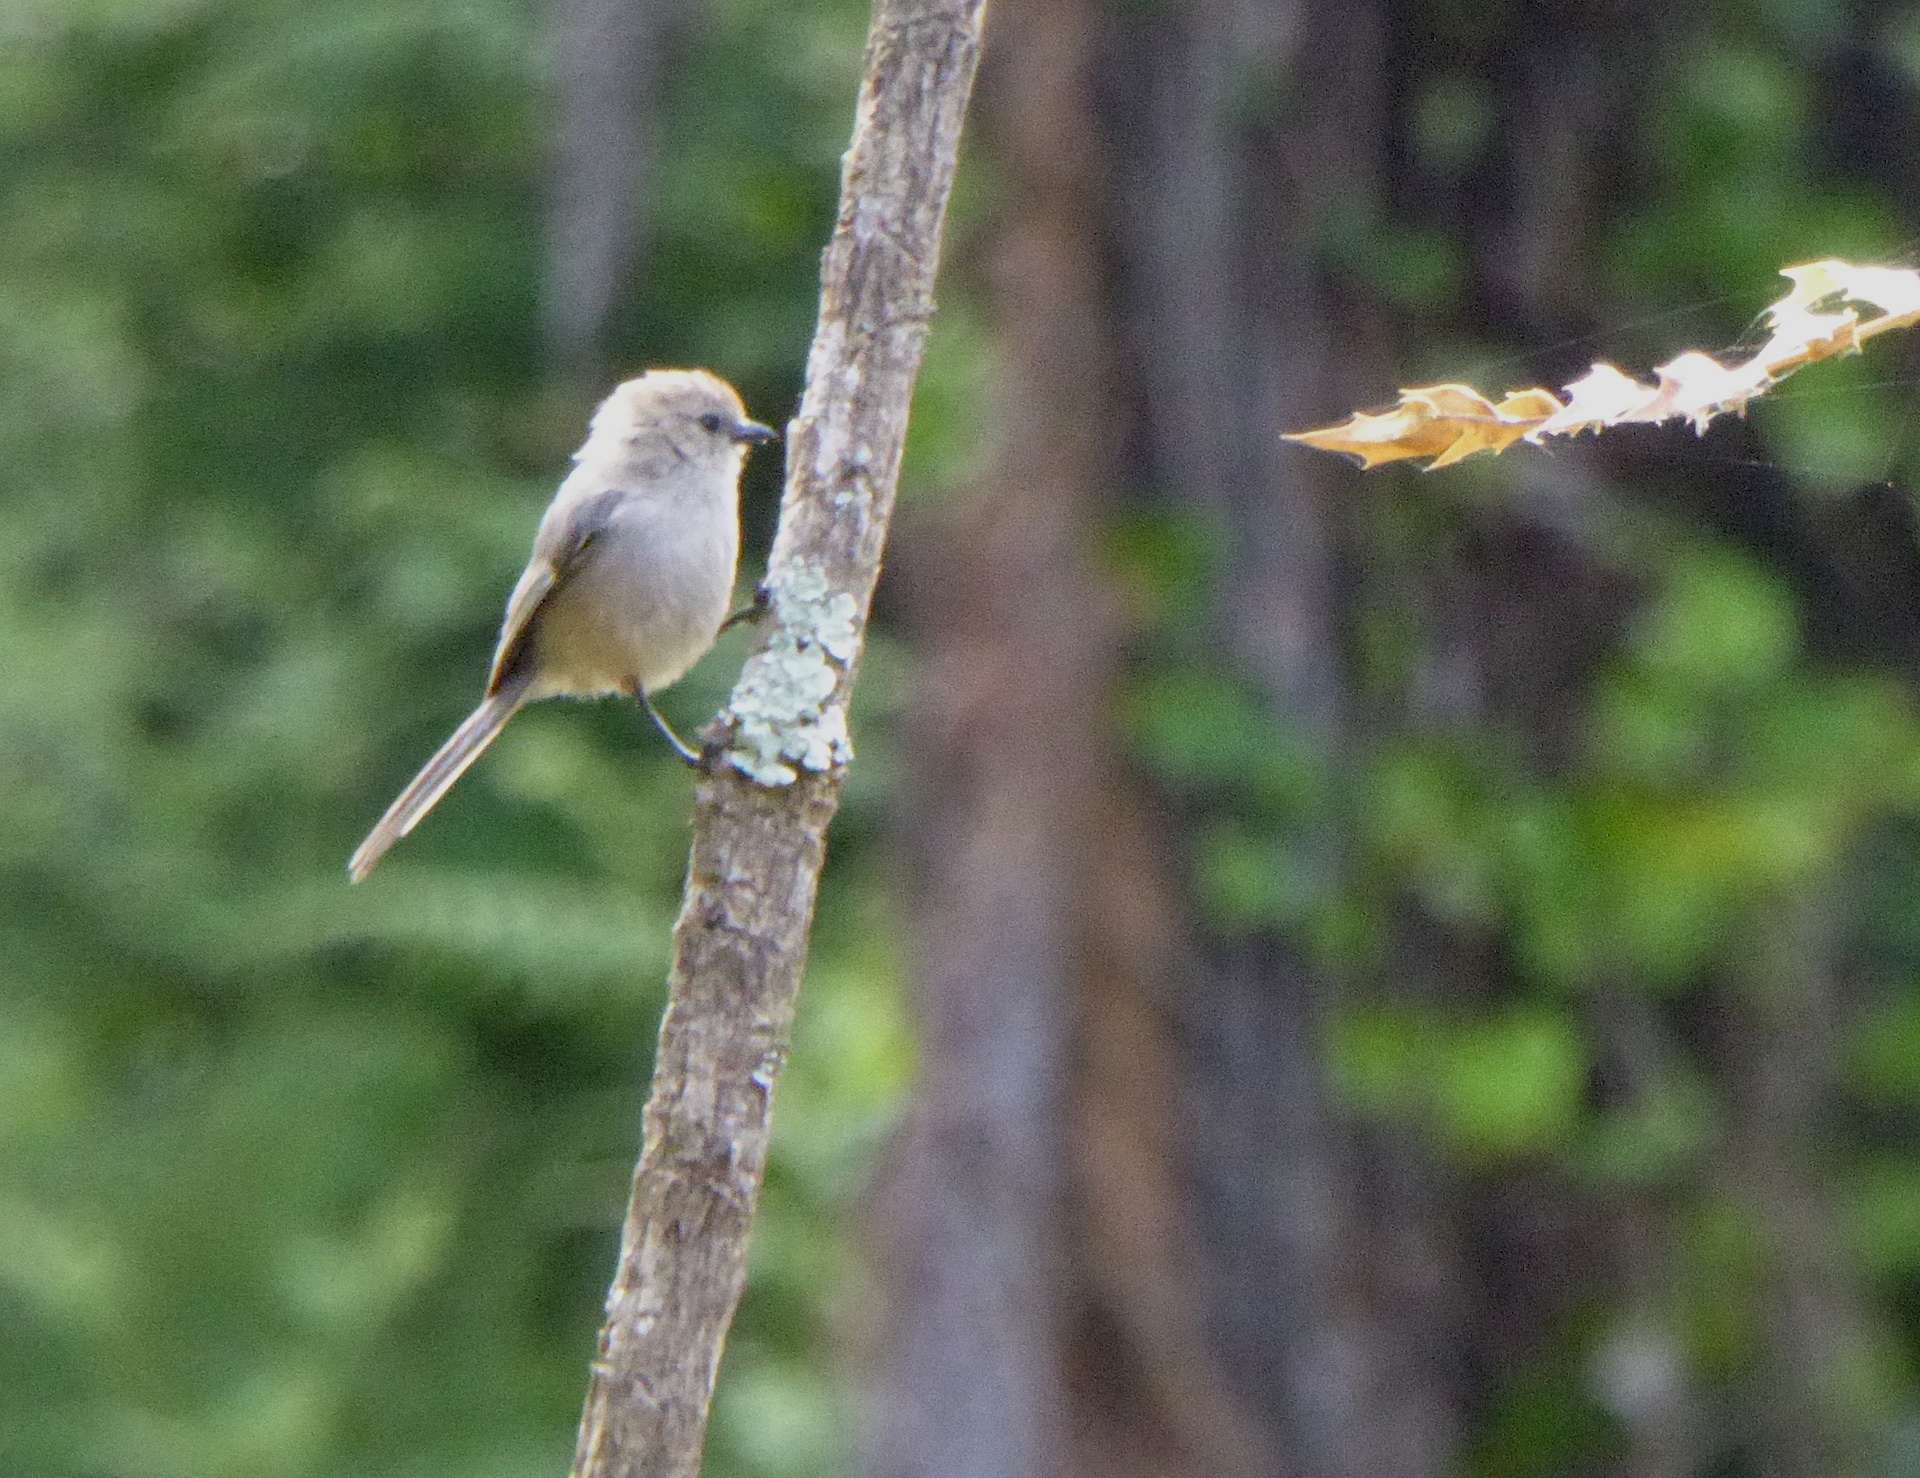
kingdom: Animalia
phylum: Chordata
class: Aves
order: Passeriformes
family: Aegithalidae
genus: Psaltriparus
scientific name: Psaltriparus minimus
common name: American bushtit
